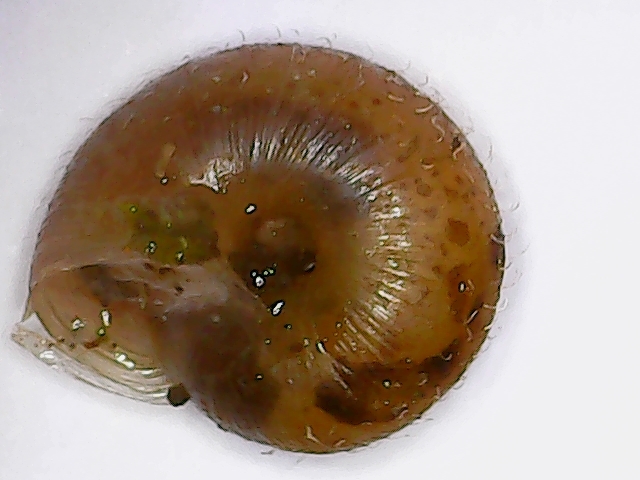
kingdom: Animalia
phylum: Mollusca
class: Gastropoda
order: Stylommatophora
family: Hygromiidae
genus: Trochulus
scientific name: Trochulus hispidus
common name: Hairy snail
